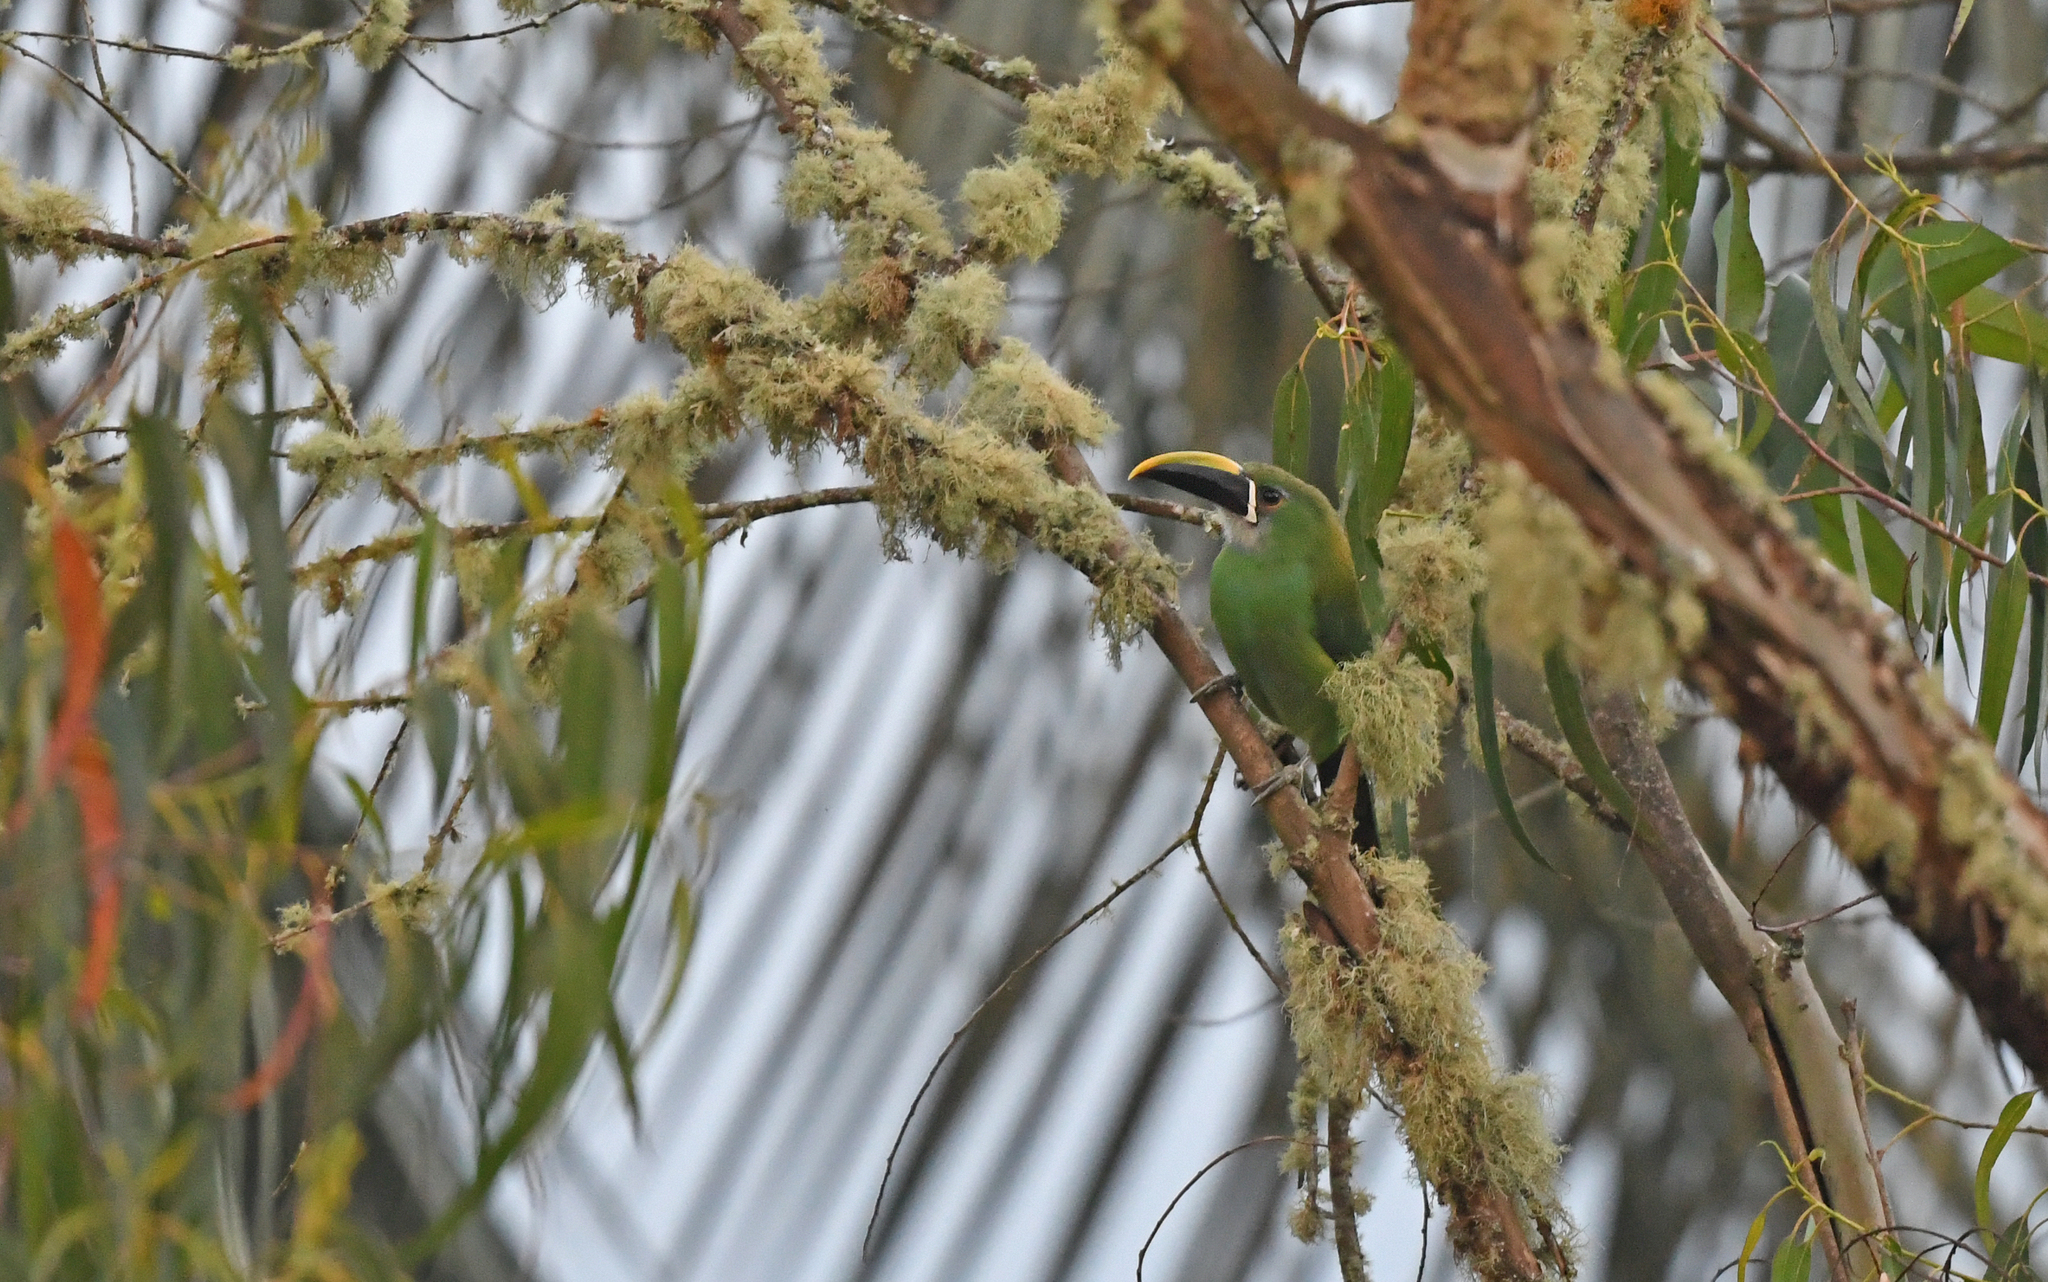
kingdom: Animalia
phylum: Chordata
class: Aves
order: Piciformes
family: Ramphastidae
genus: Aulacorhynchus
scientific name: Aulacorhynchus albivitta
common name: White-throated toucanet
